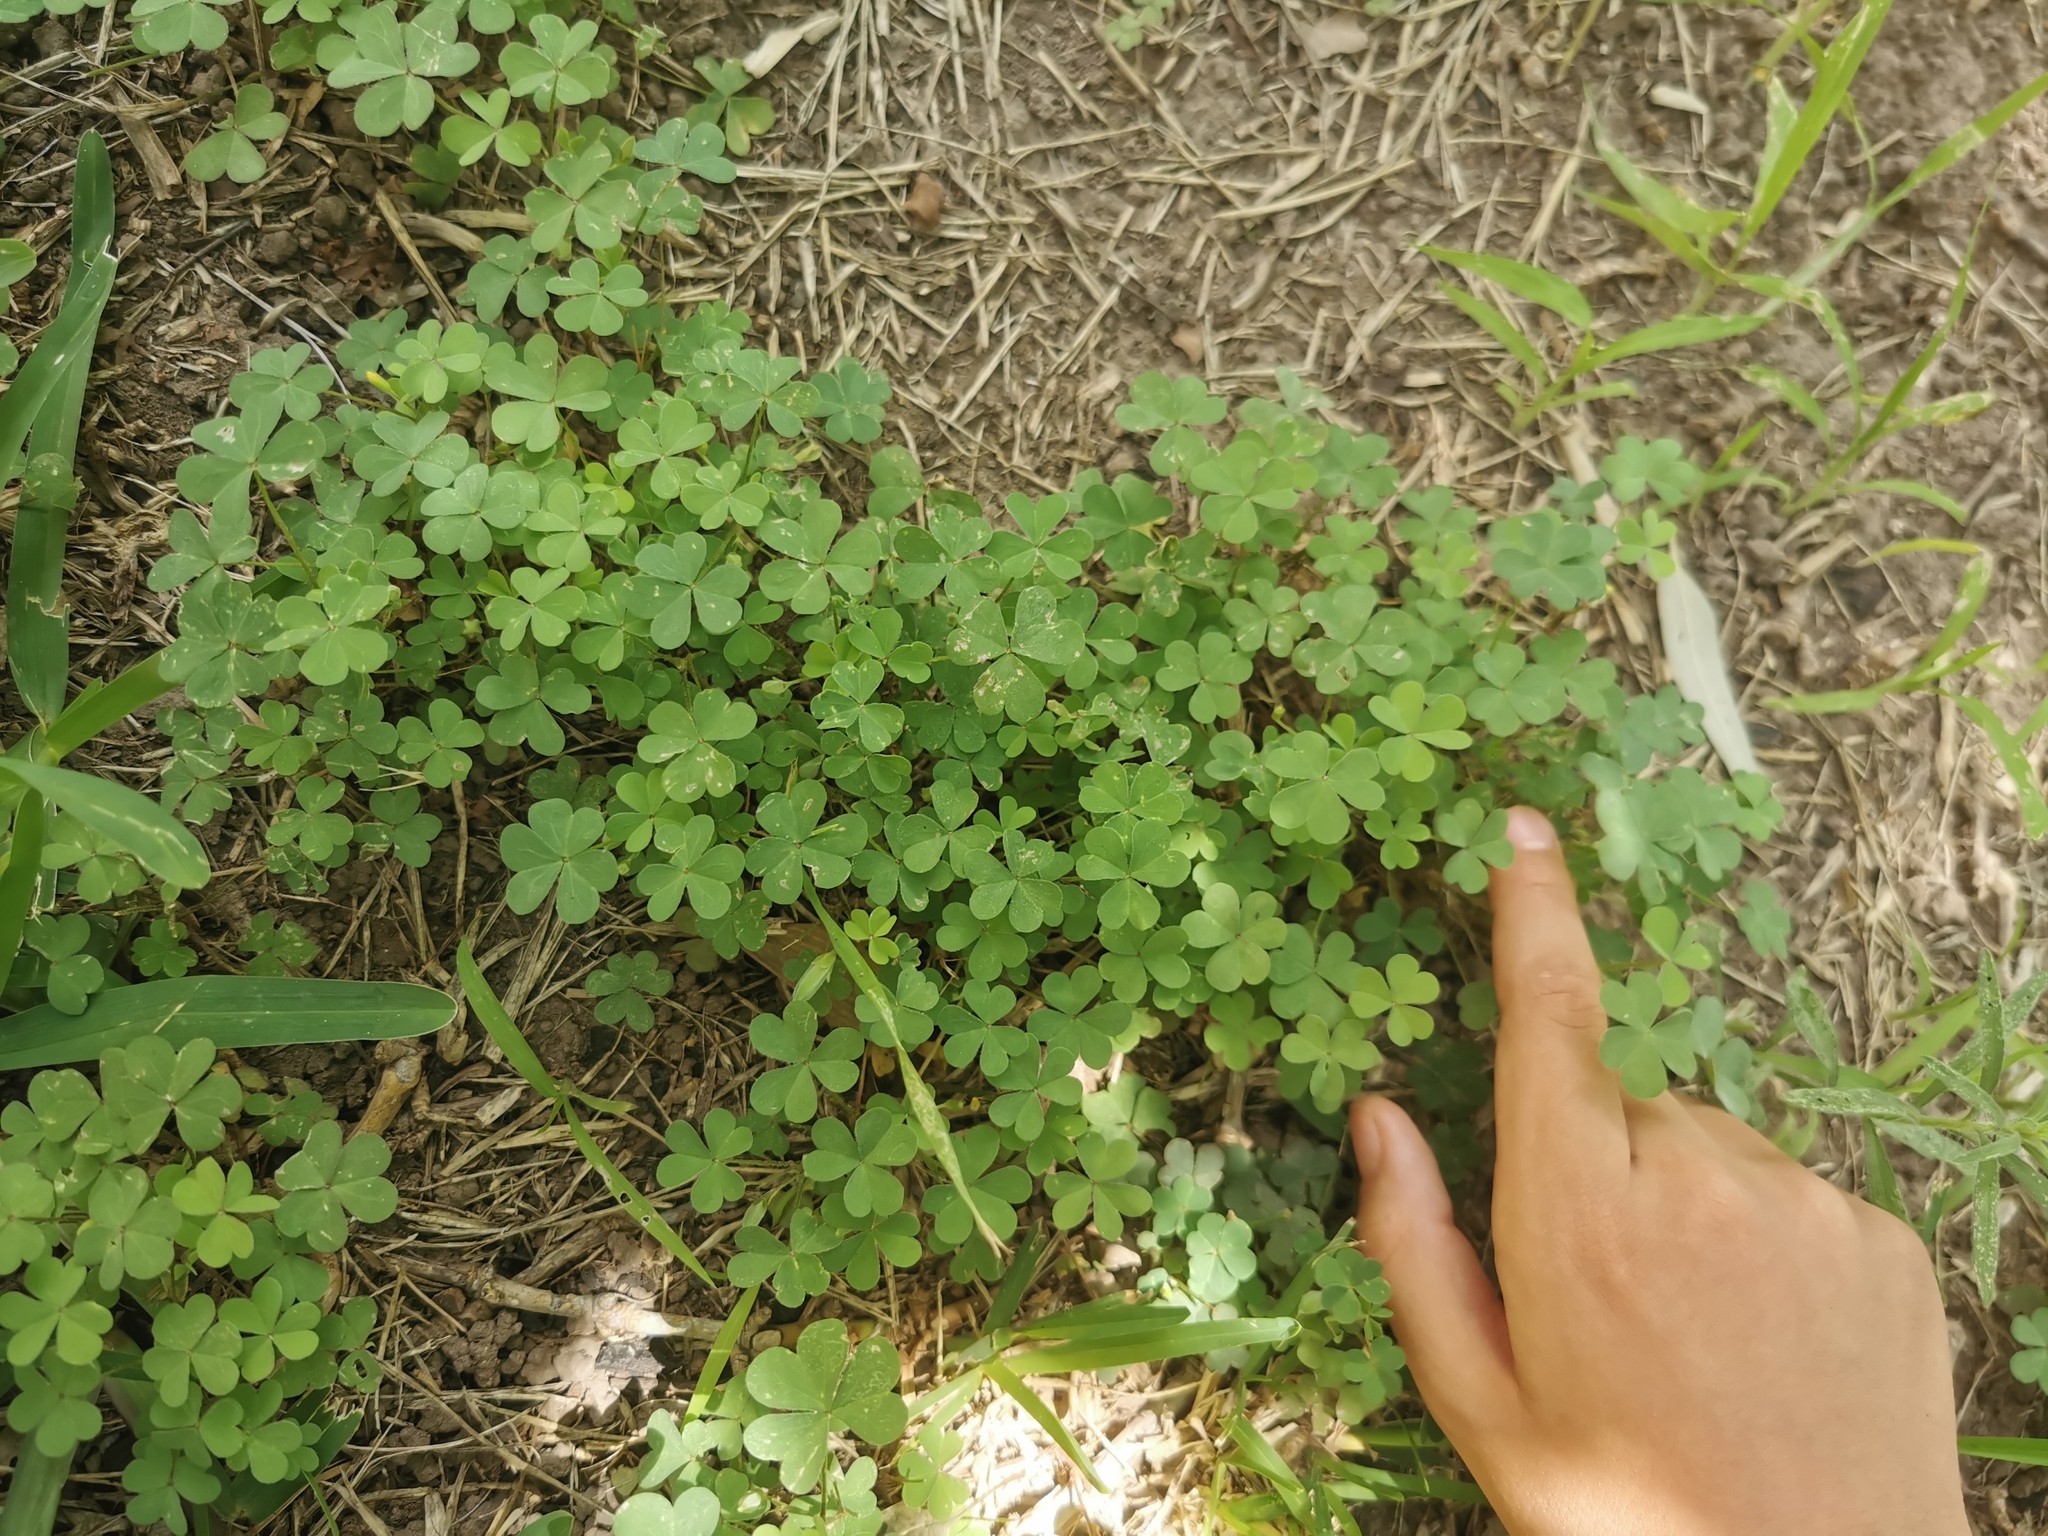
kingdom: Plantae
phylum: Tracheophyta
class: Magnoliopsida
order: Oxalidales
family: Oxalidaceae
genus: Oxalis
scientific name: Oxalis corniculata
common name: Procumbent yellow-sorrel
